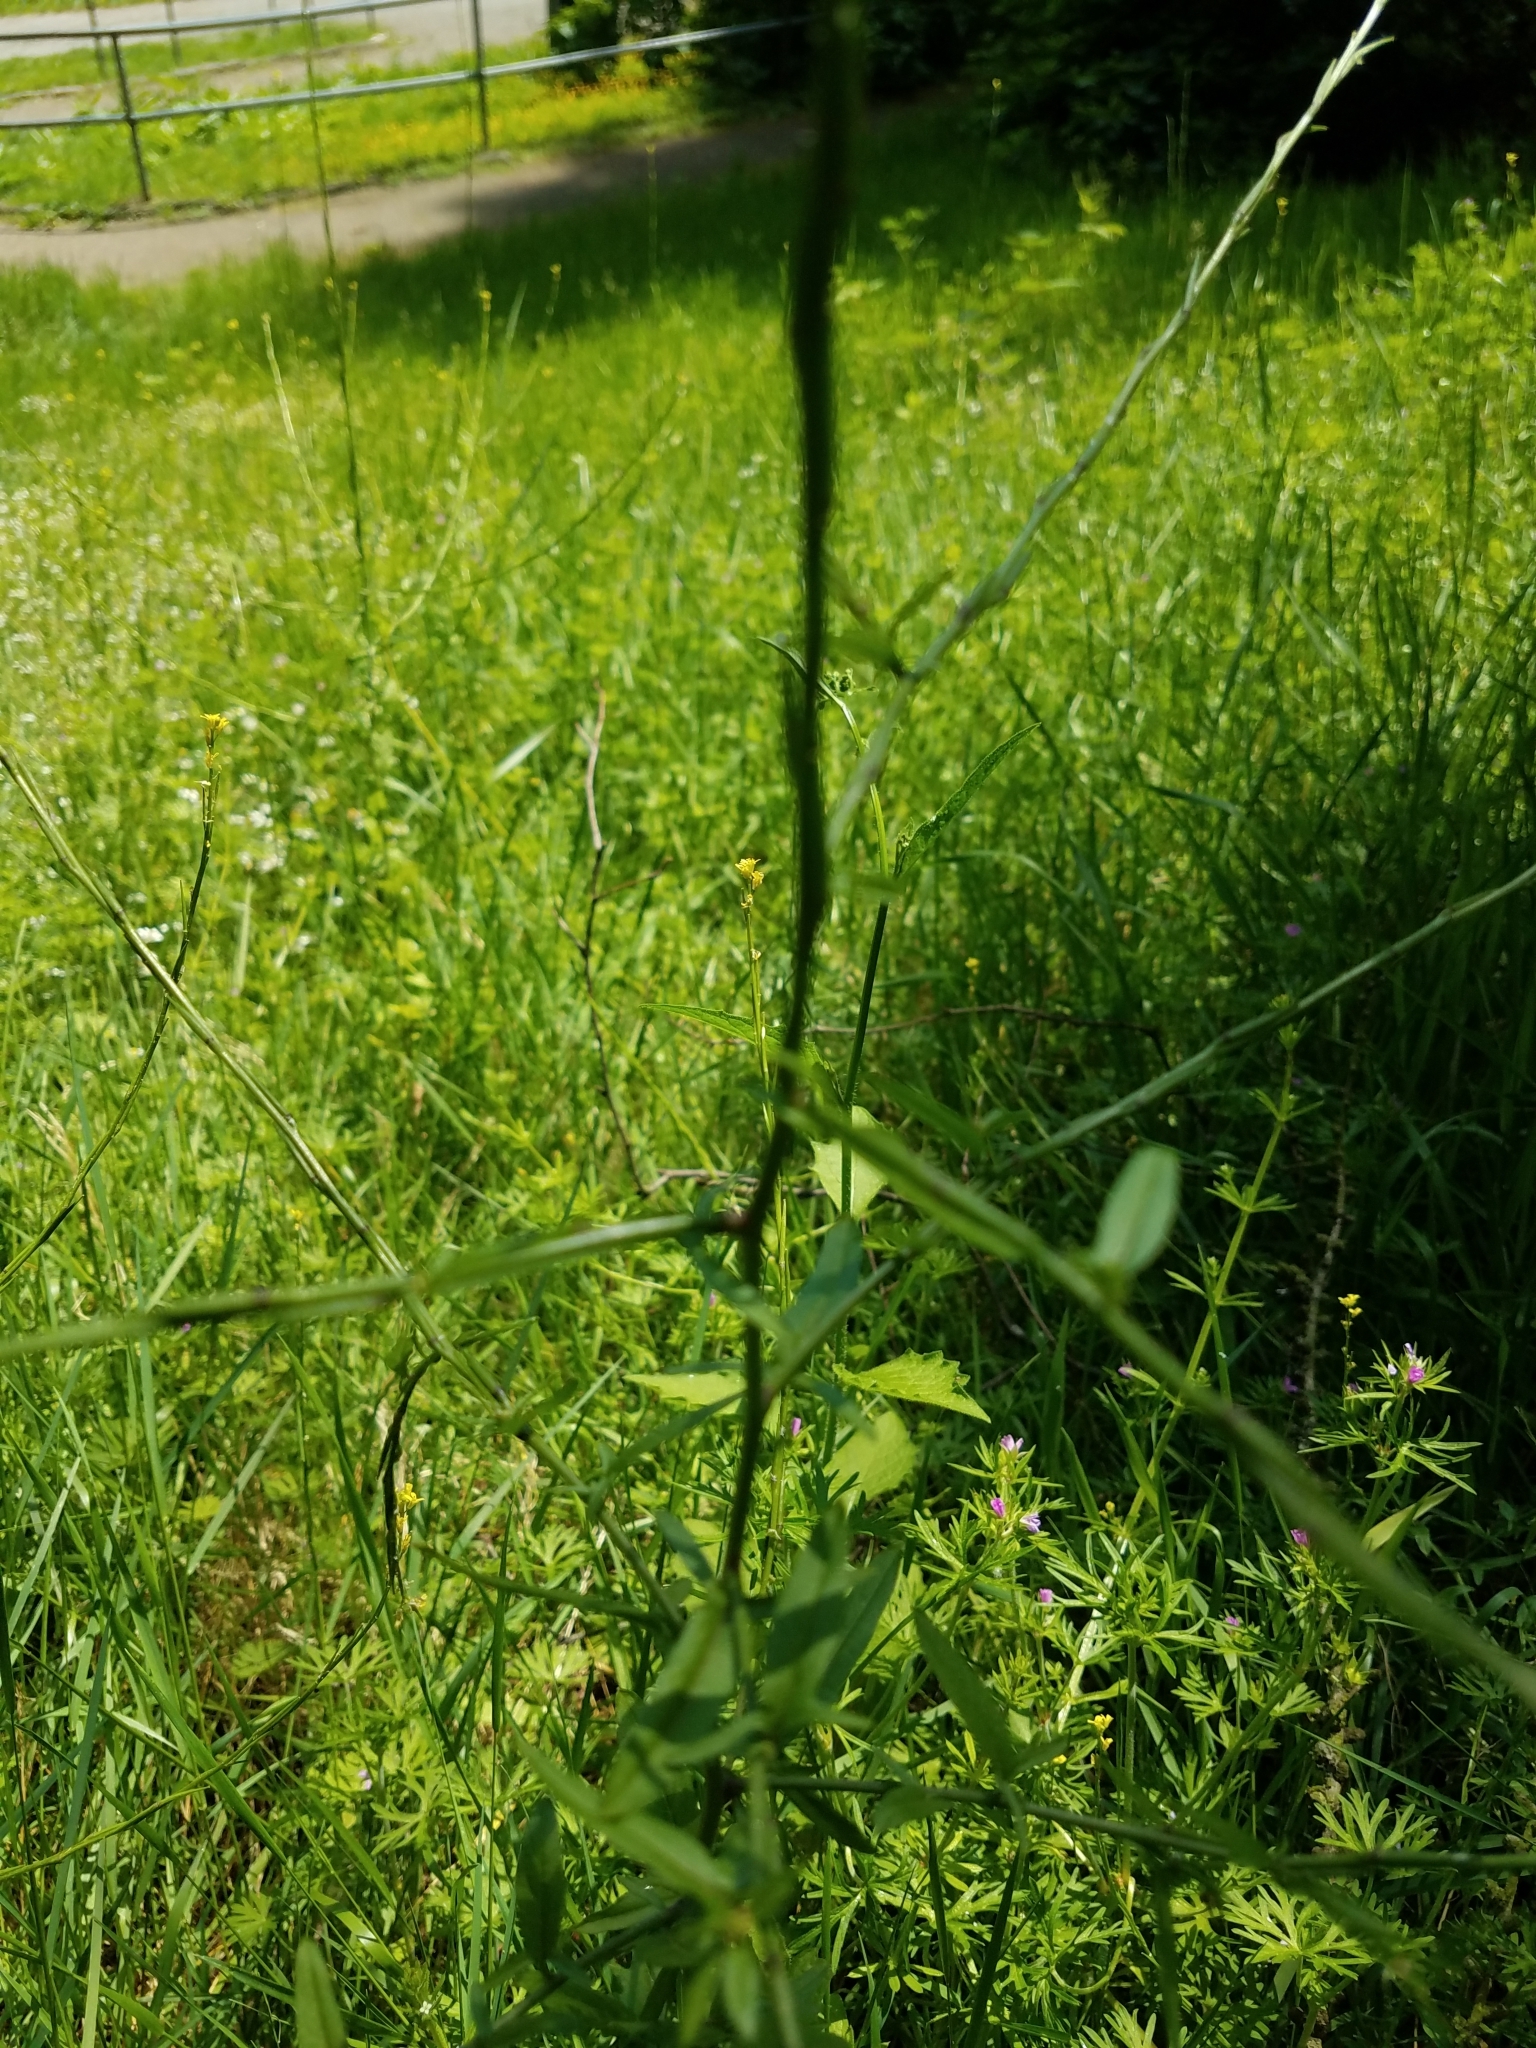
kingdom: Plantae
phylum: Tracheophyta
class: Magnoliopsida
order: Brassicales
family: Brassicaceae
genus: Sisymbrium
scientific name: Sisymbrium officinale
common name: Hedge mustard
